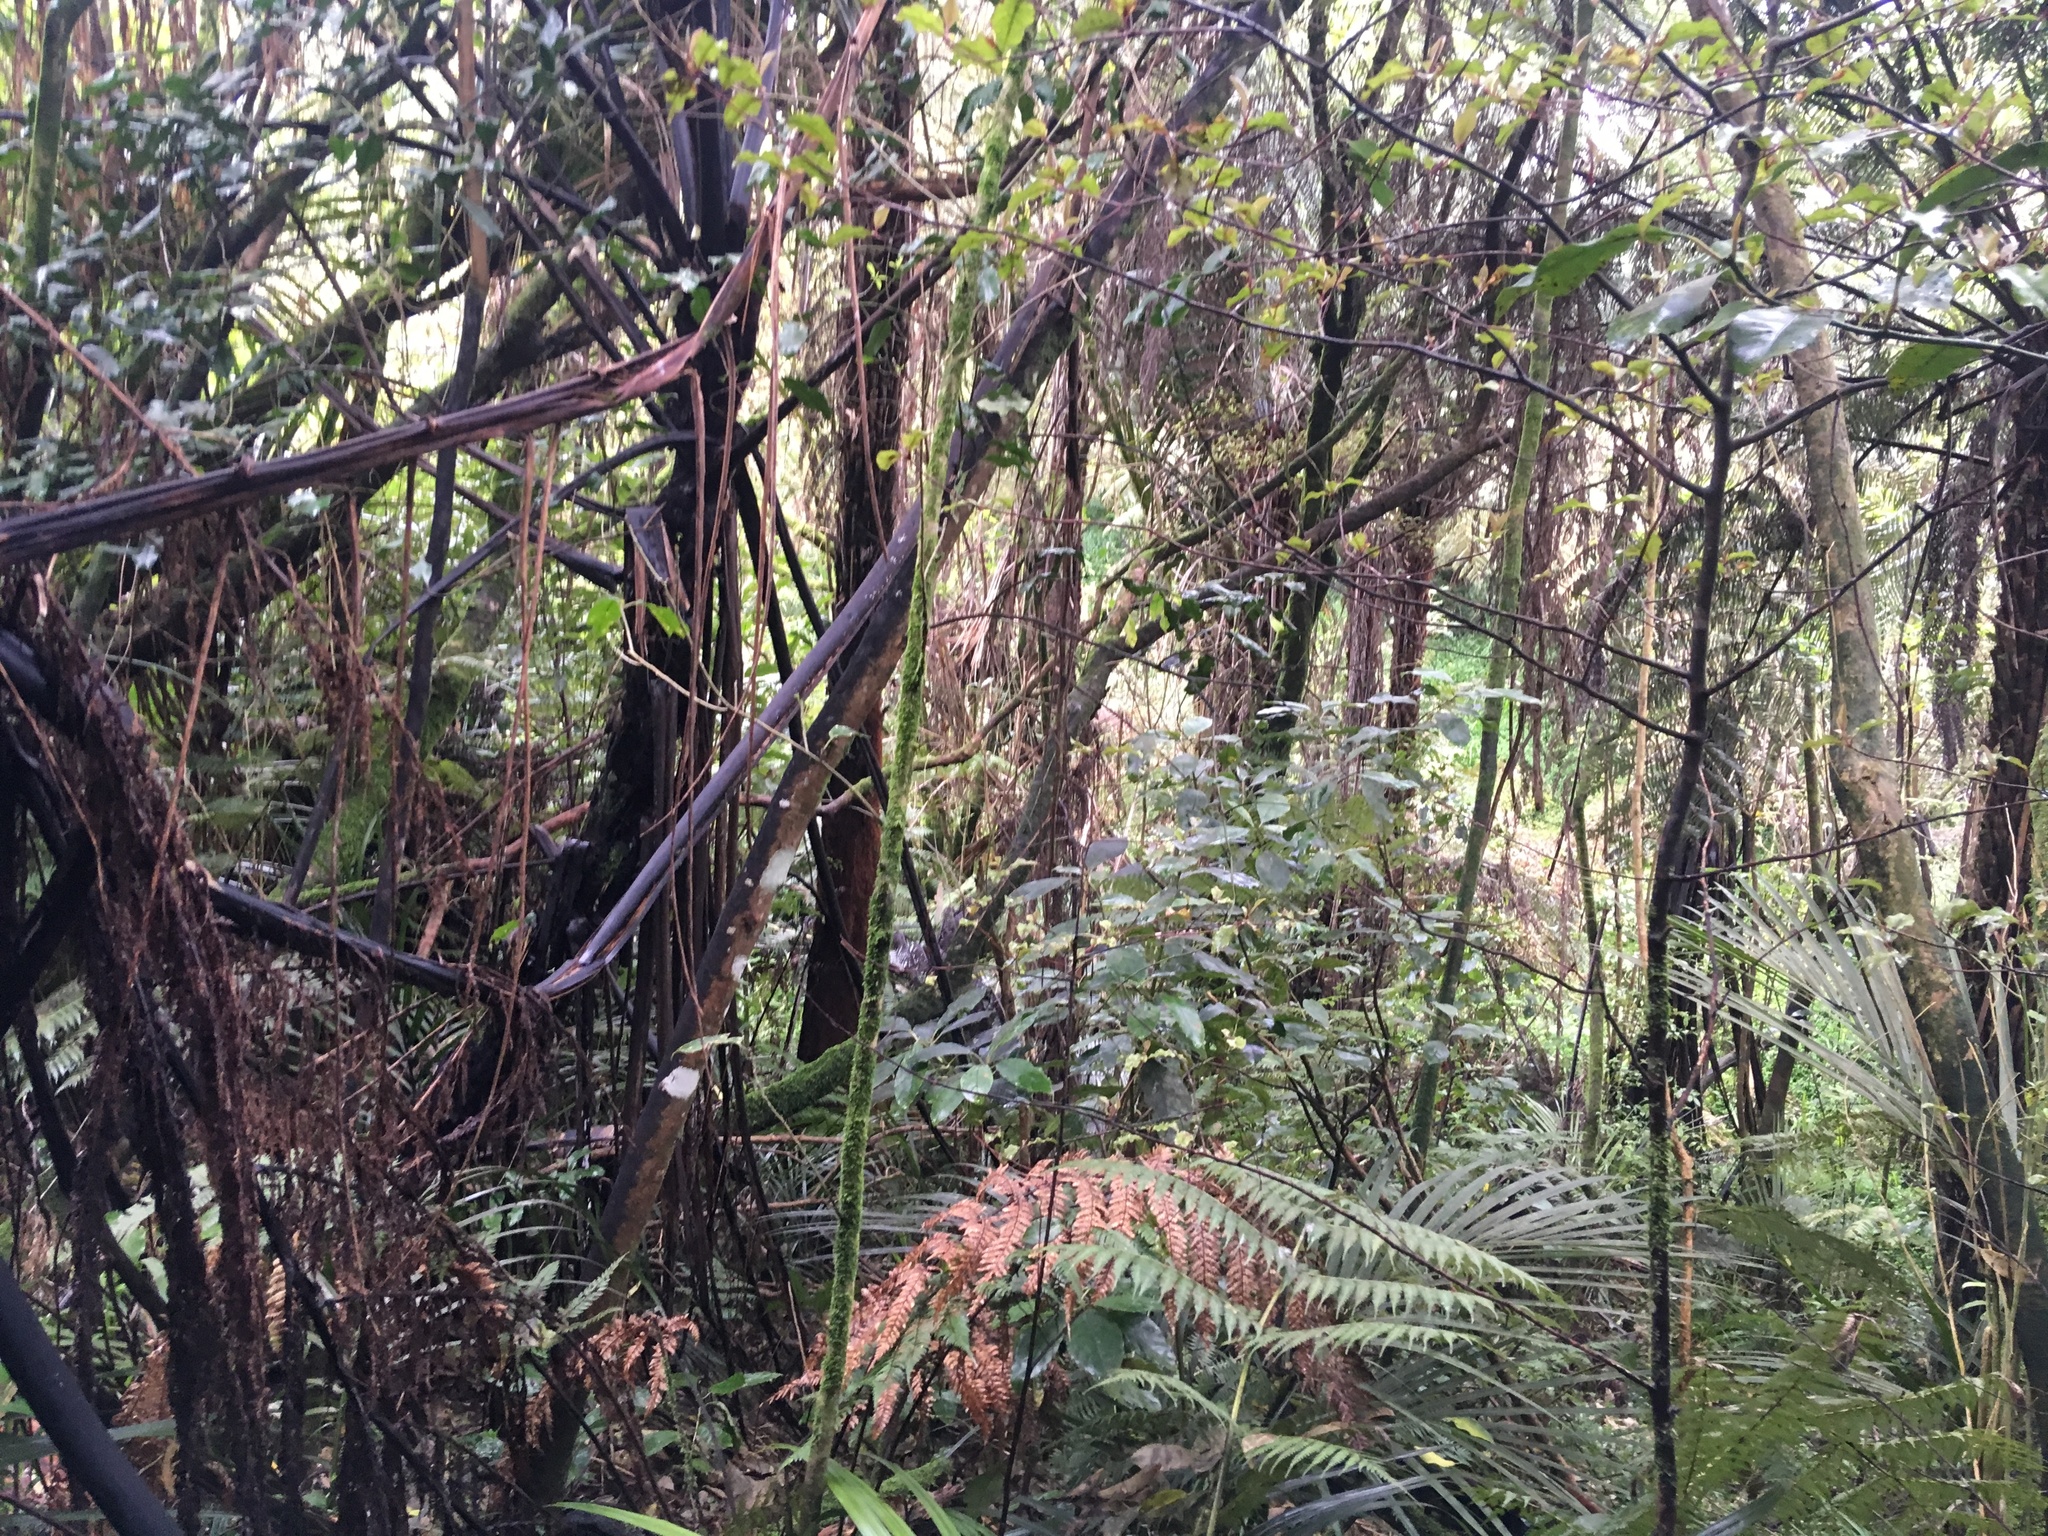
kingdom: Plantae
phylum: Tracheophyta
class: Polypodiopsida
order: Cyatheales
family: Cyatheaceae
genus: Sphaeropteris
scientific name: Sphaeropteris medullaris
